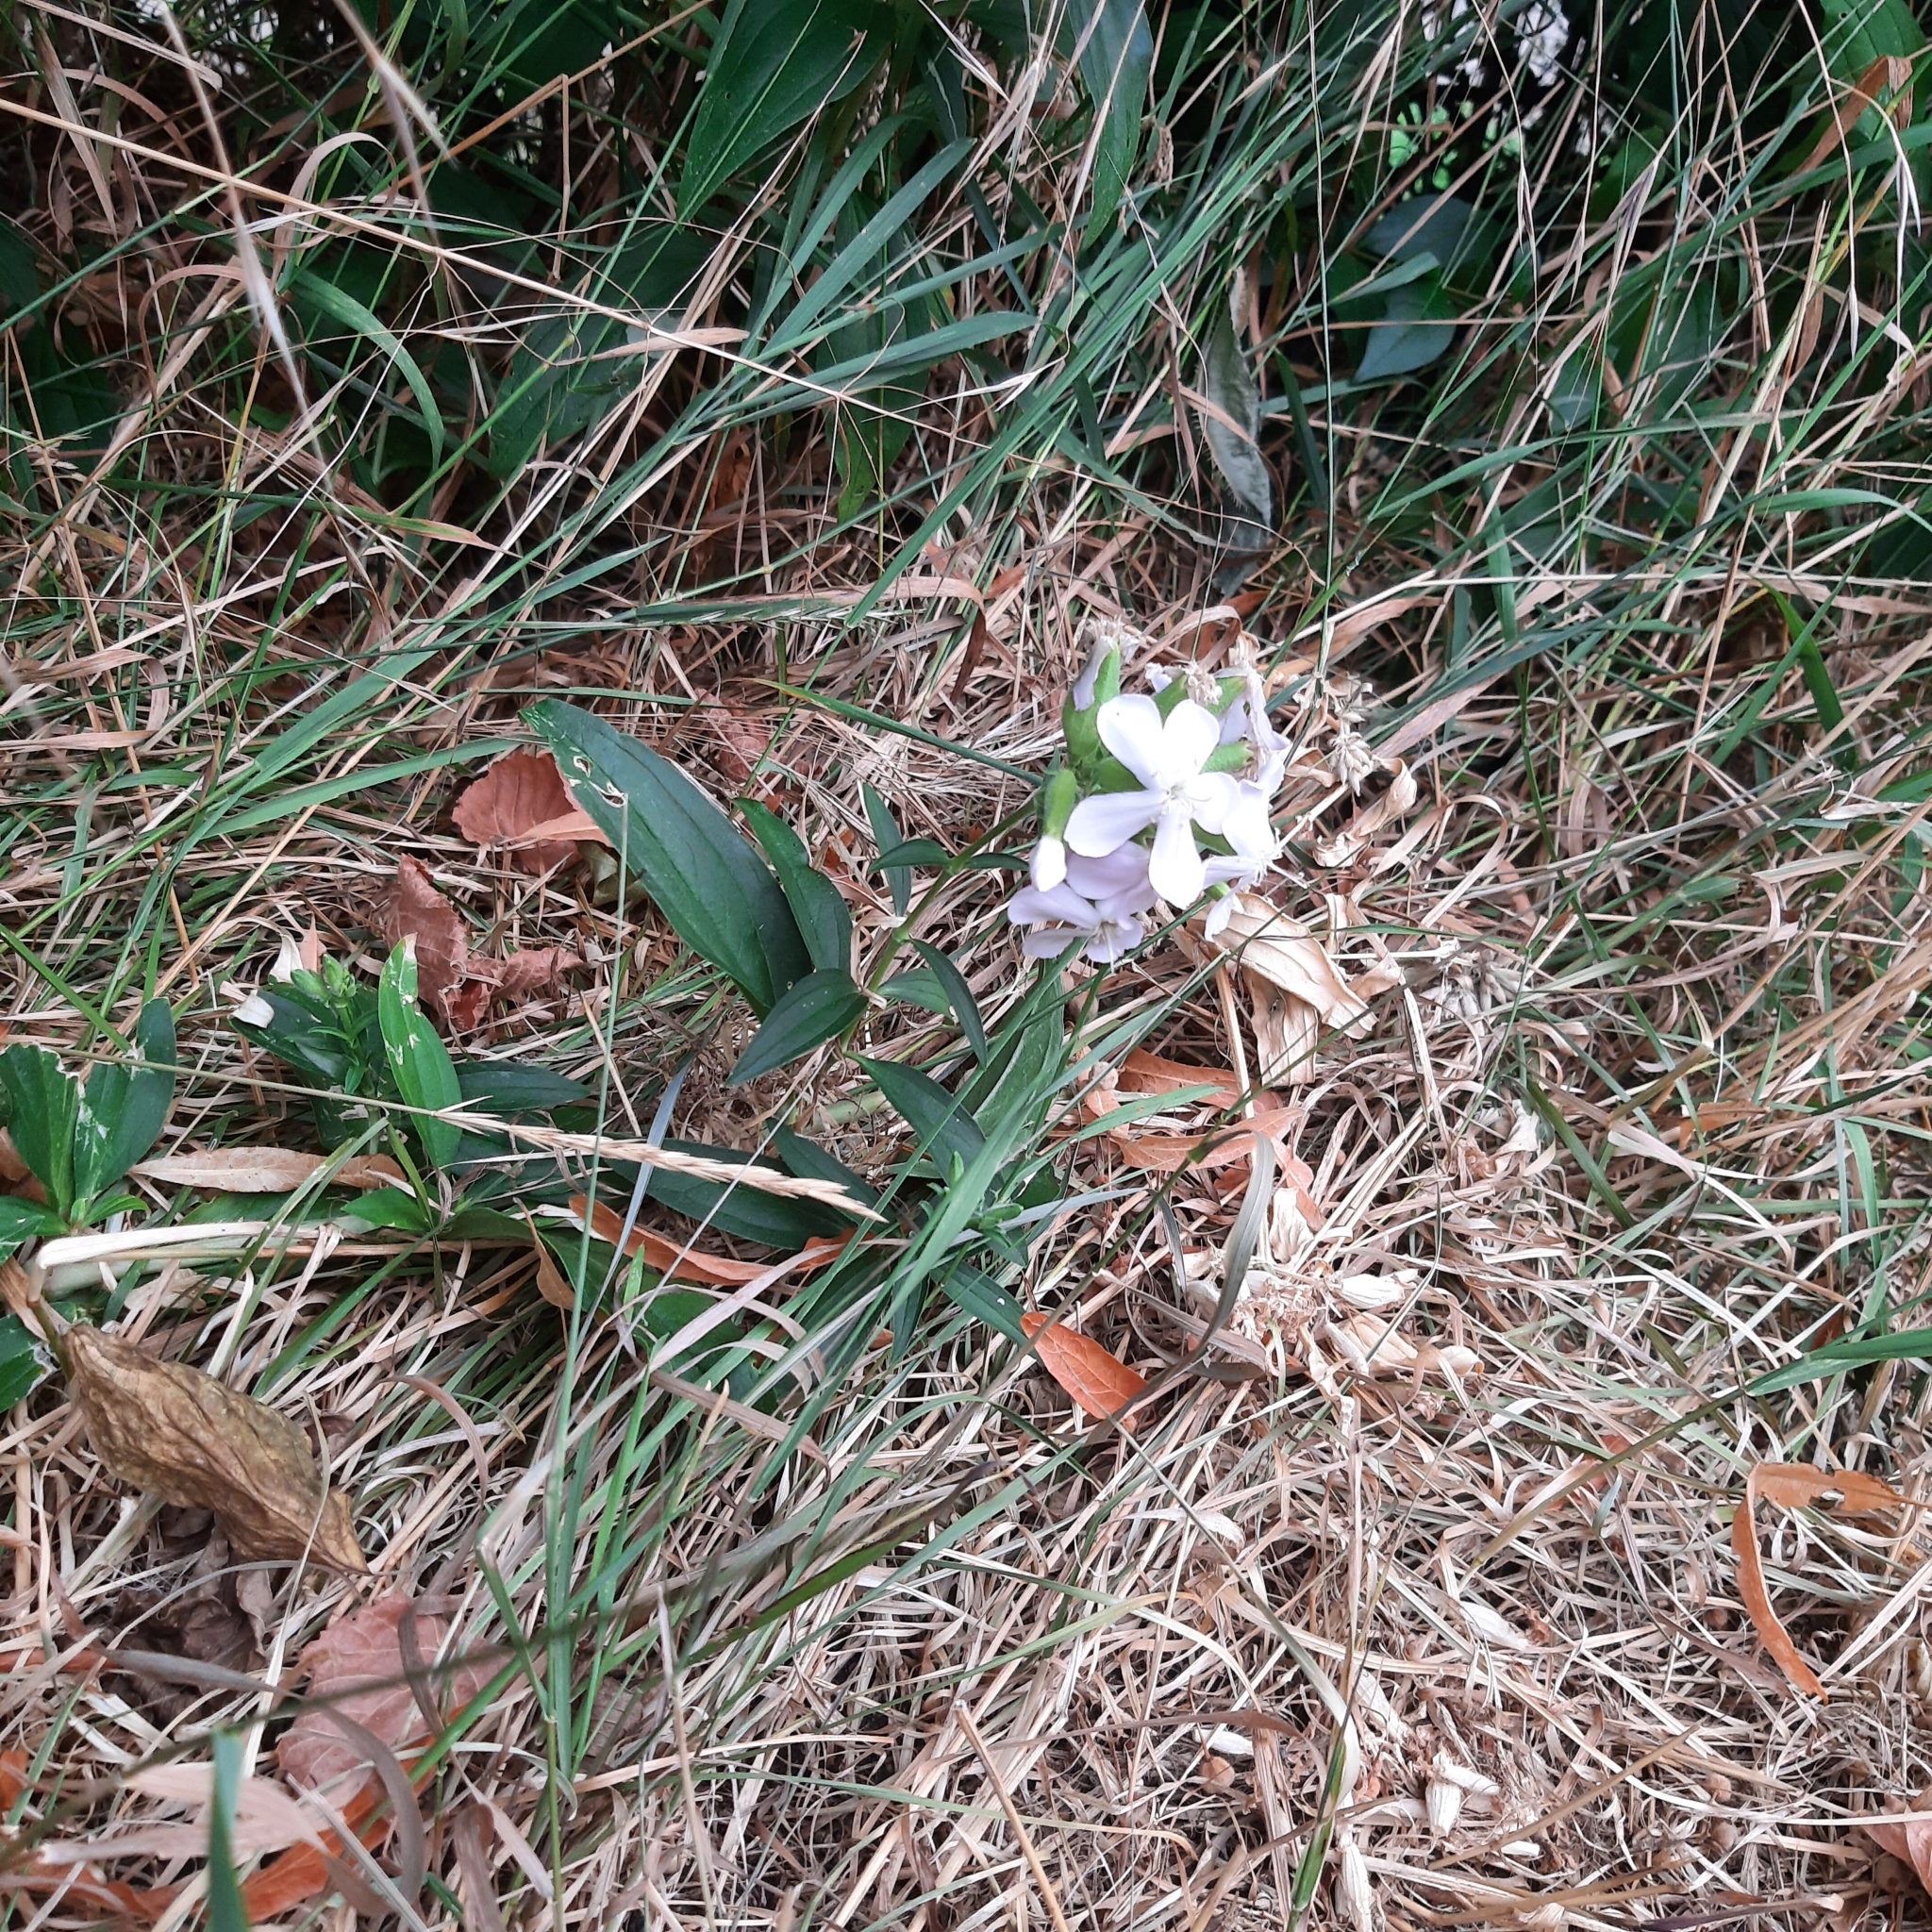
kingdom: Plantae
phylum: Tracheophyta
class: Magnoliopsida
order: Caryophyllales
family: Caryophyllaceae
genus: Saponaria
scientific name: Saponaria officinalis
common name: Soapwort
